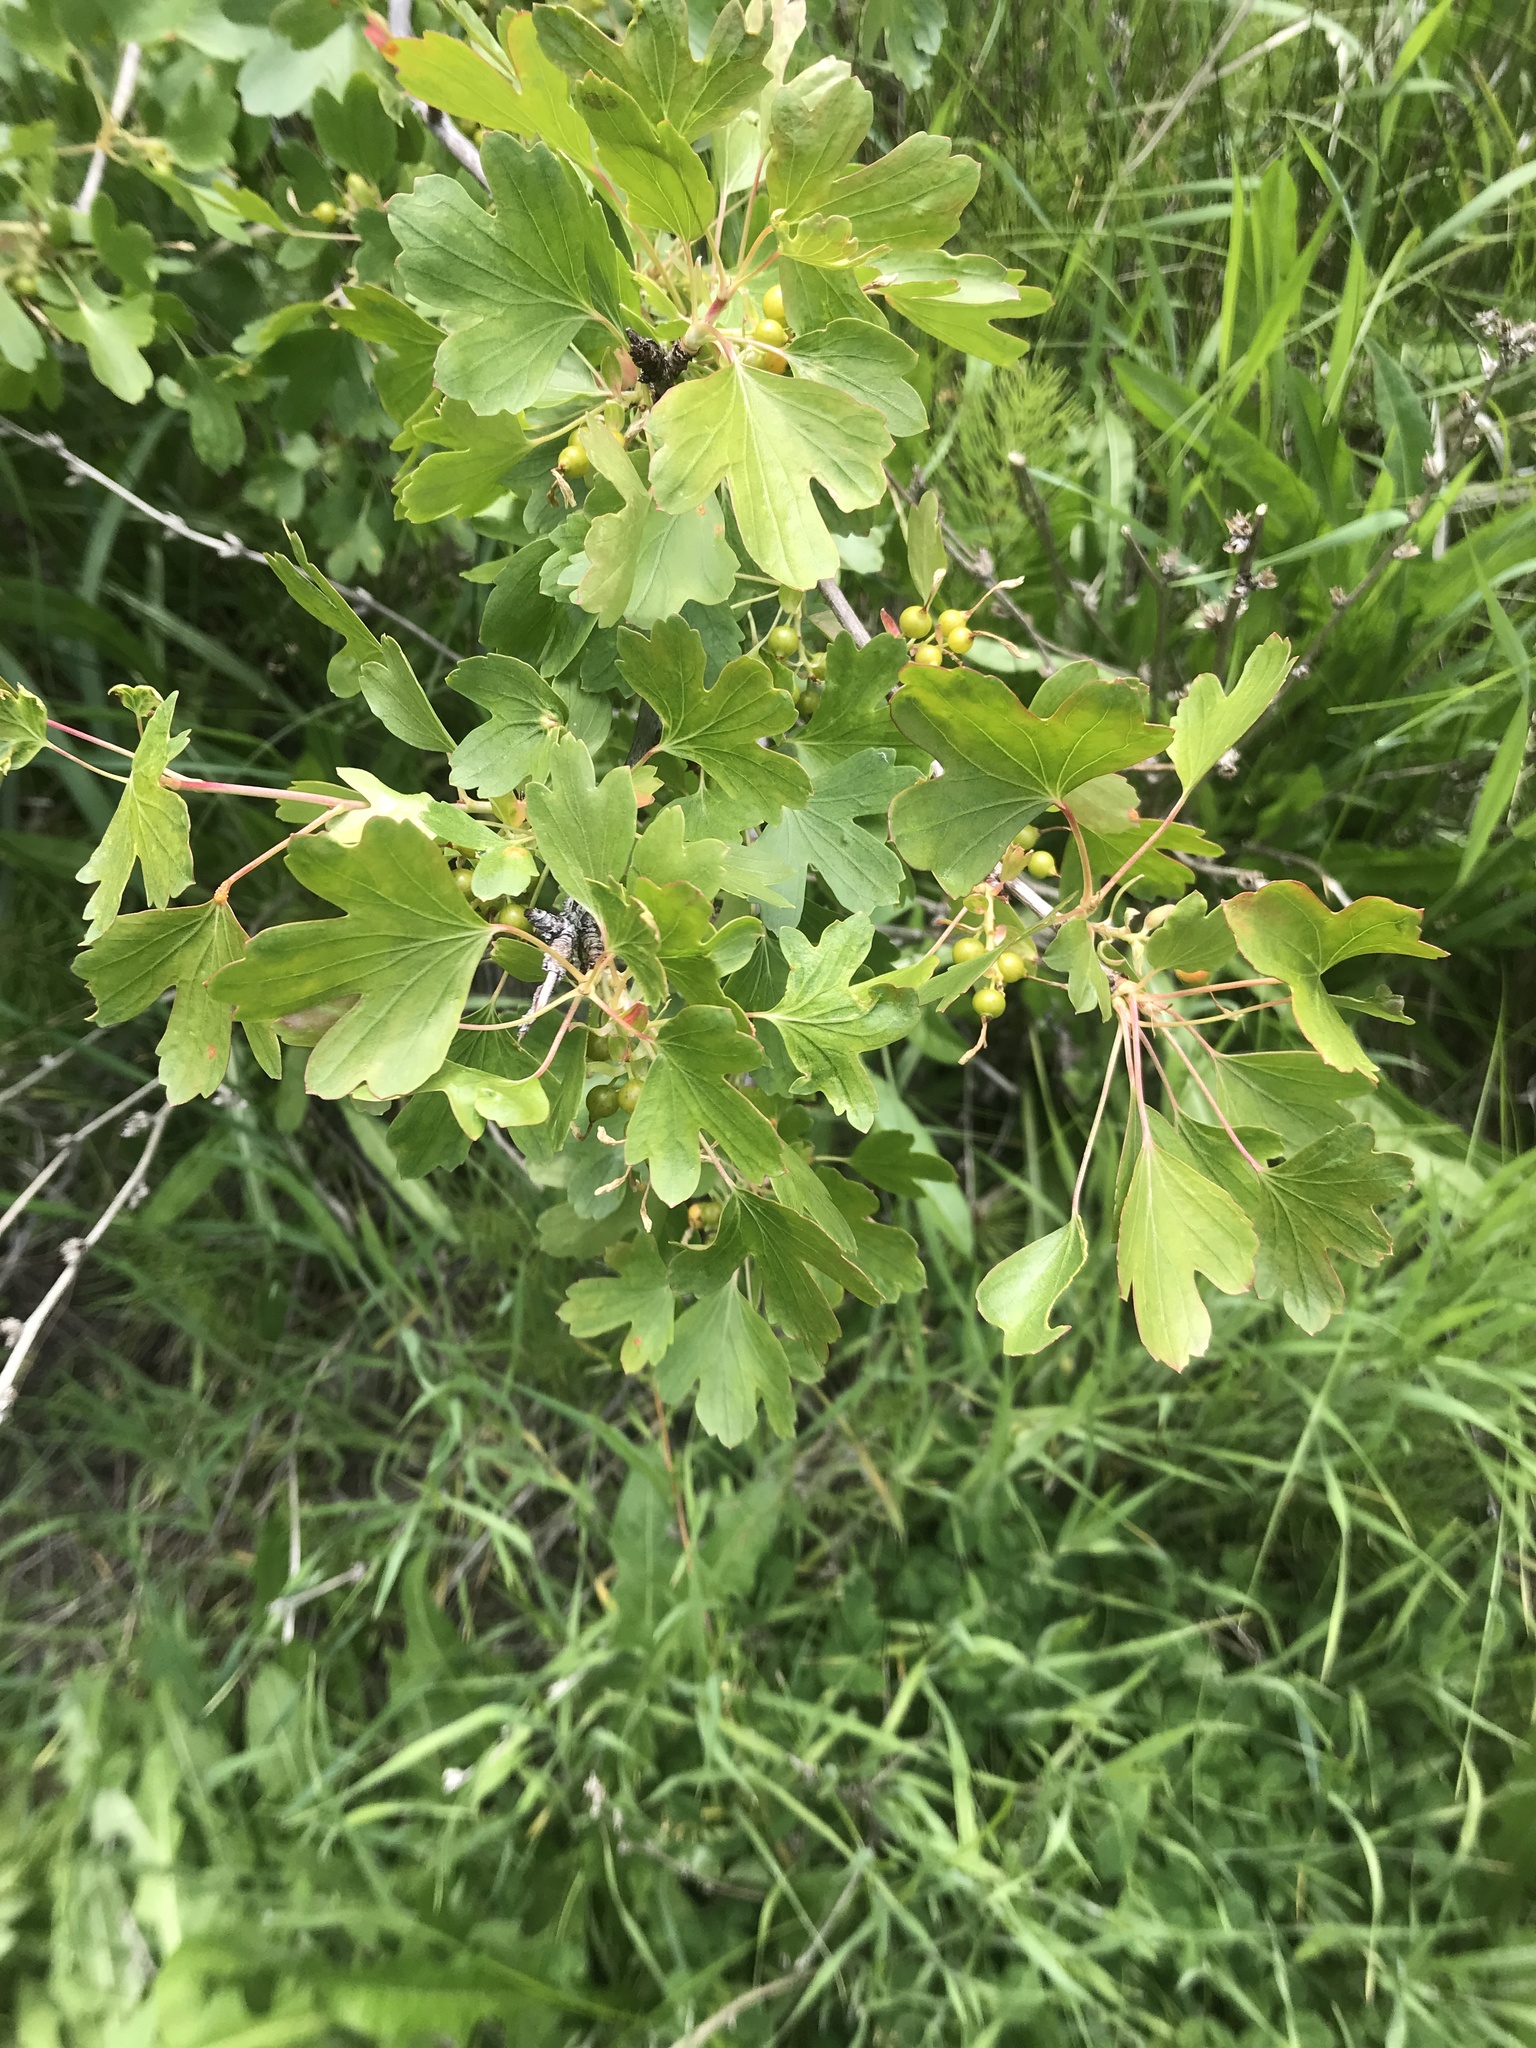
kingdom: Plantae
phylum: Tracheophyta
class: Magnoliopsida
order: Saxifragales
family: Grossulariaceae
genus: Ribes
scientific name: Ribes aureum
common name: Golden currant
